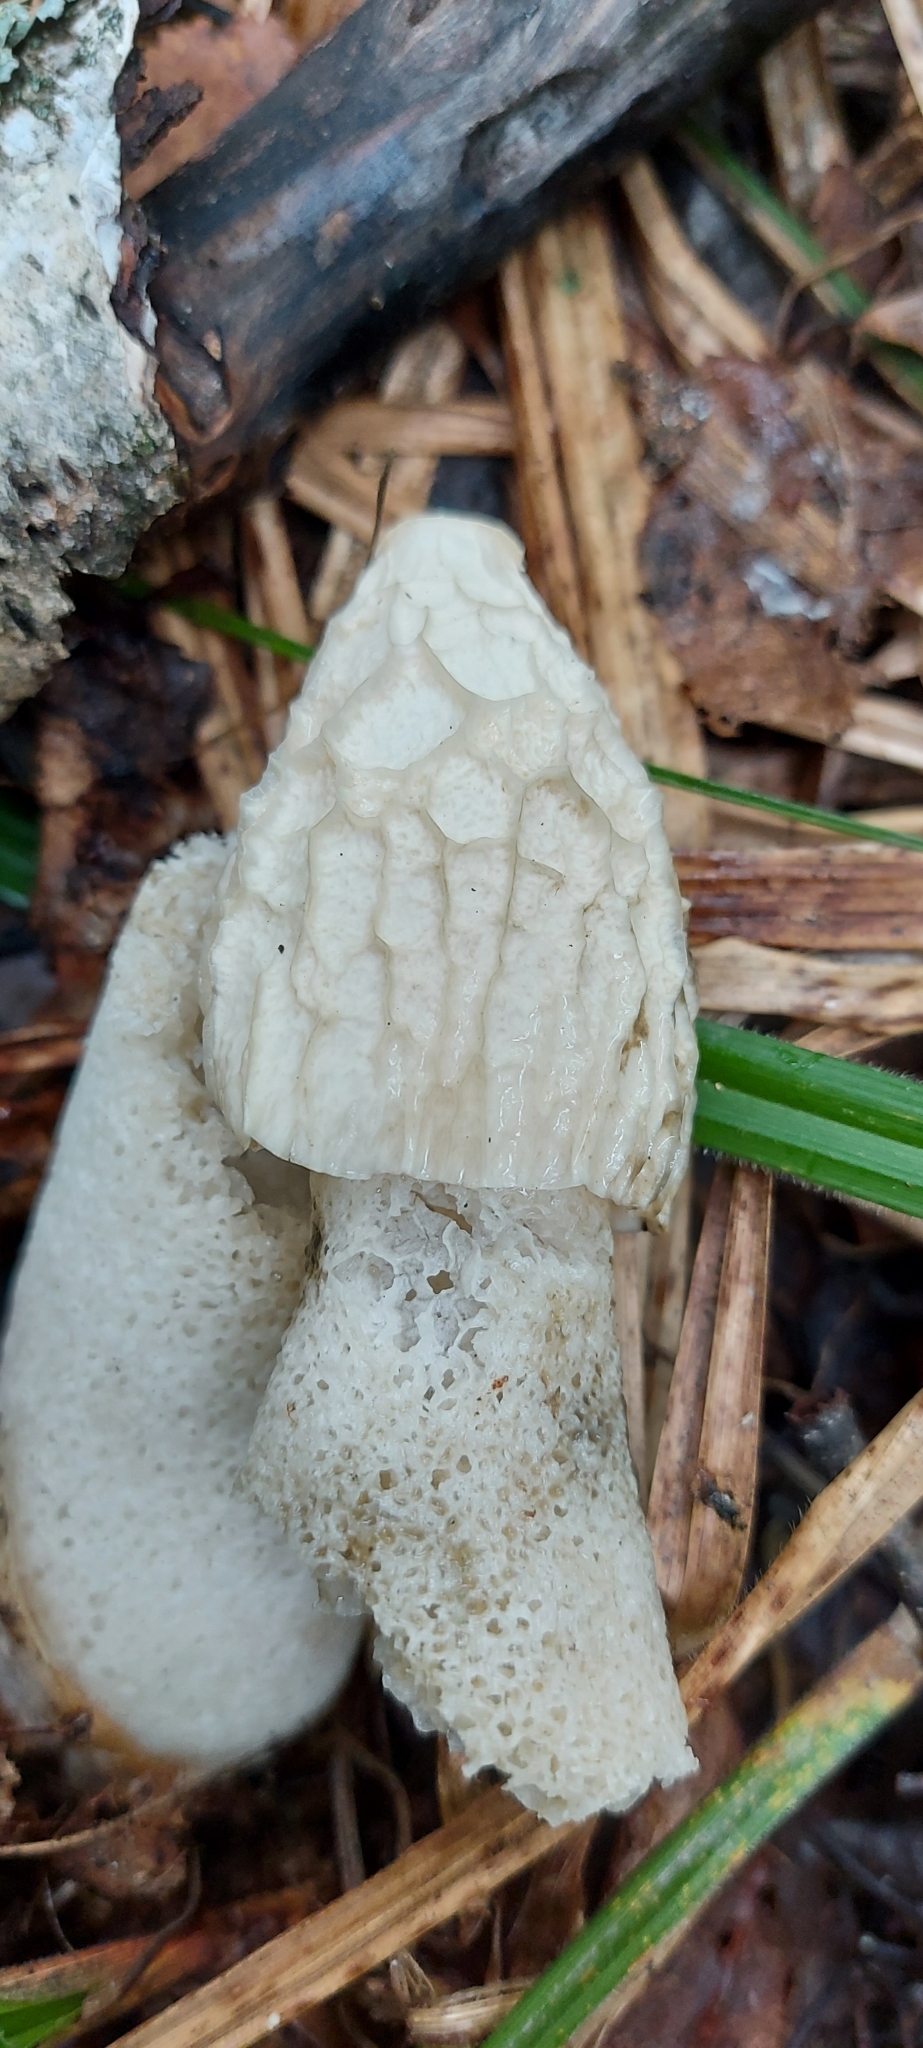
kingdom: Fungi
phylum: Basidiomycota
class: Agaricomycetes
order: Phallales
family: Phallaceae
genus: Phallus
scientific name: Phallus impudicus
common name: Common stinkhorn
